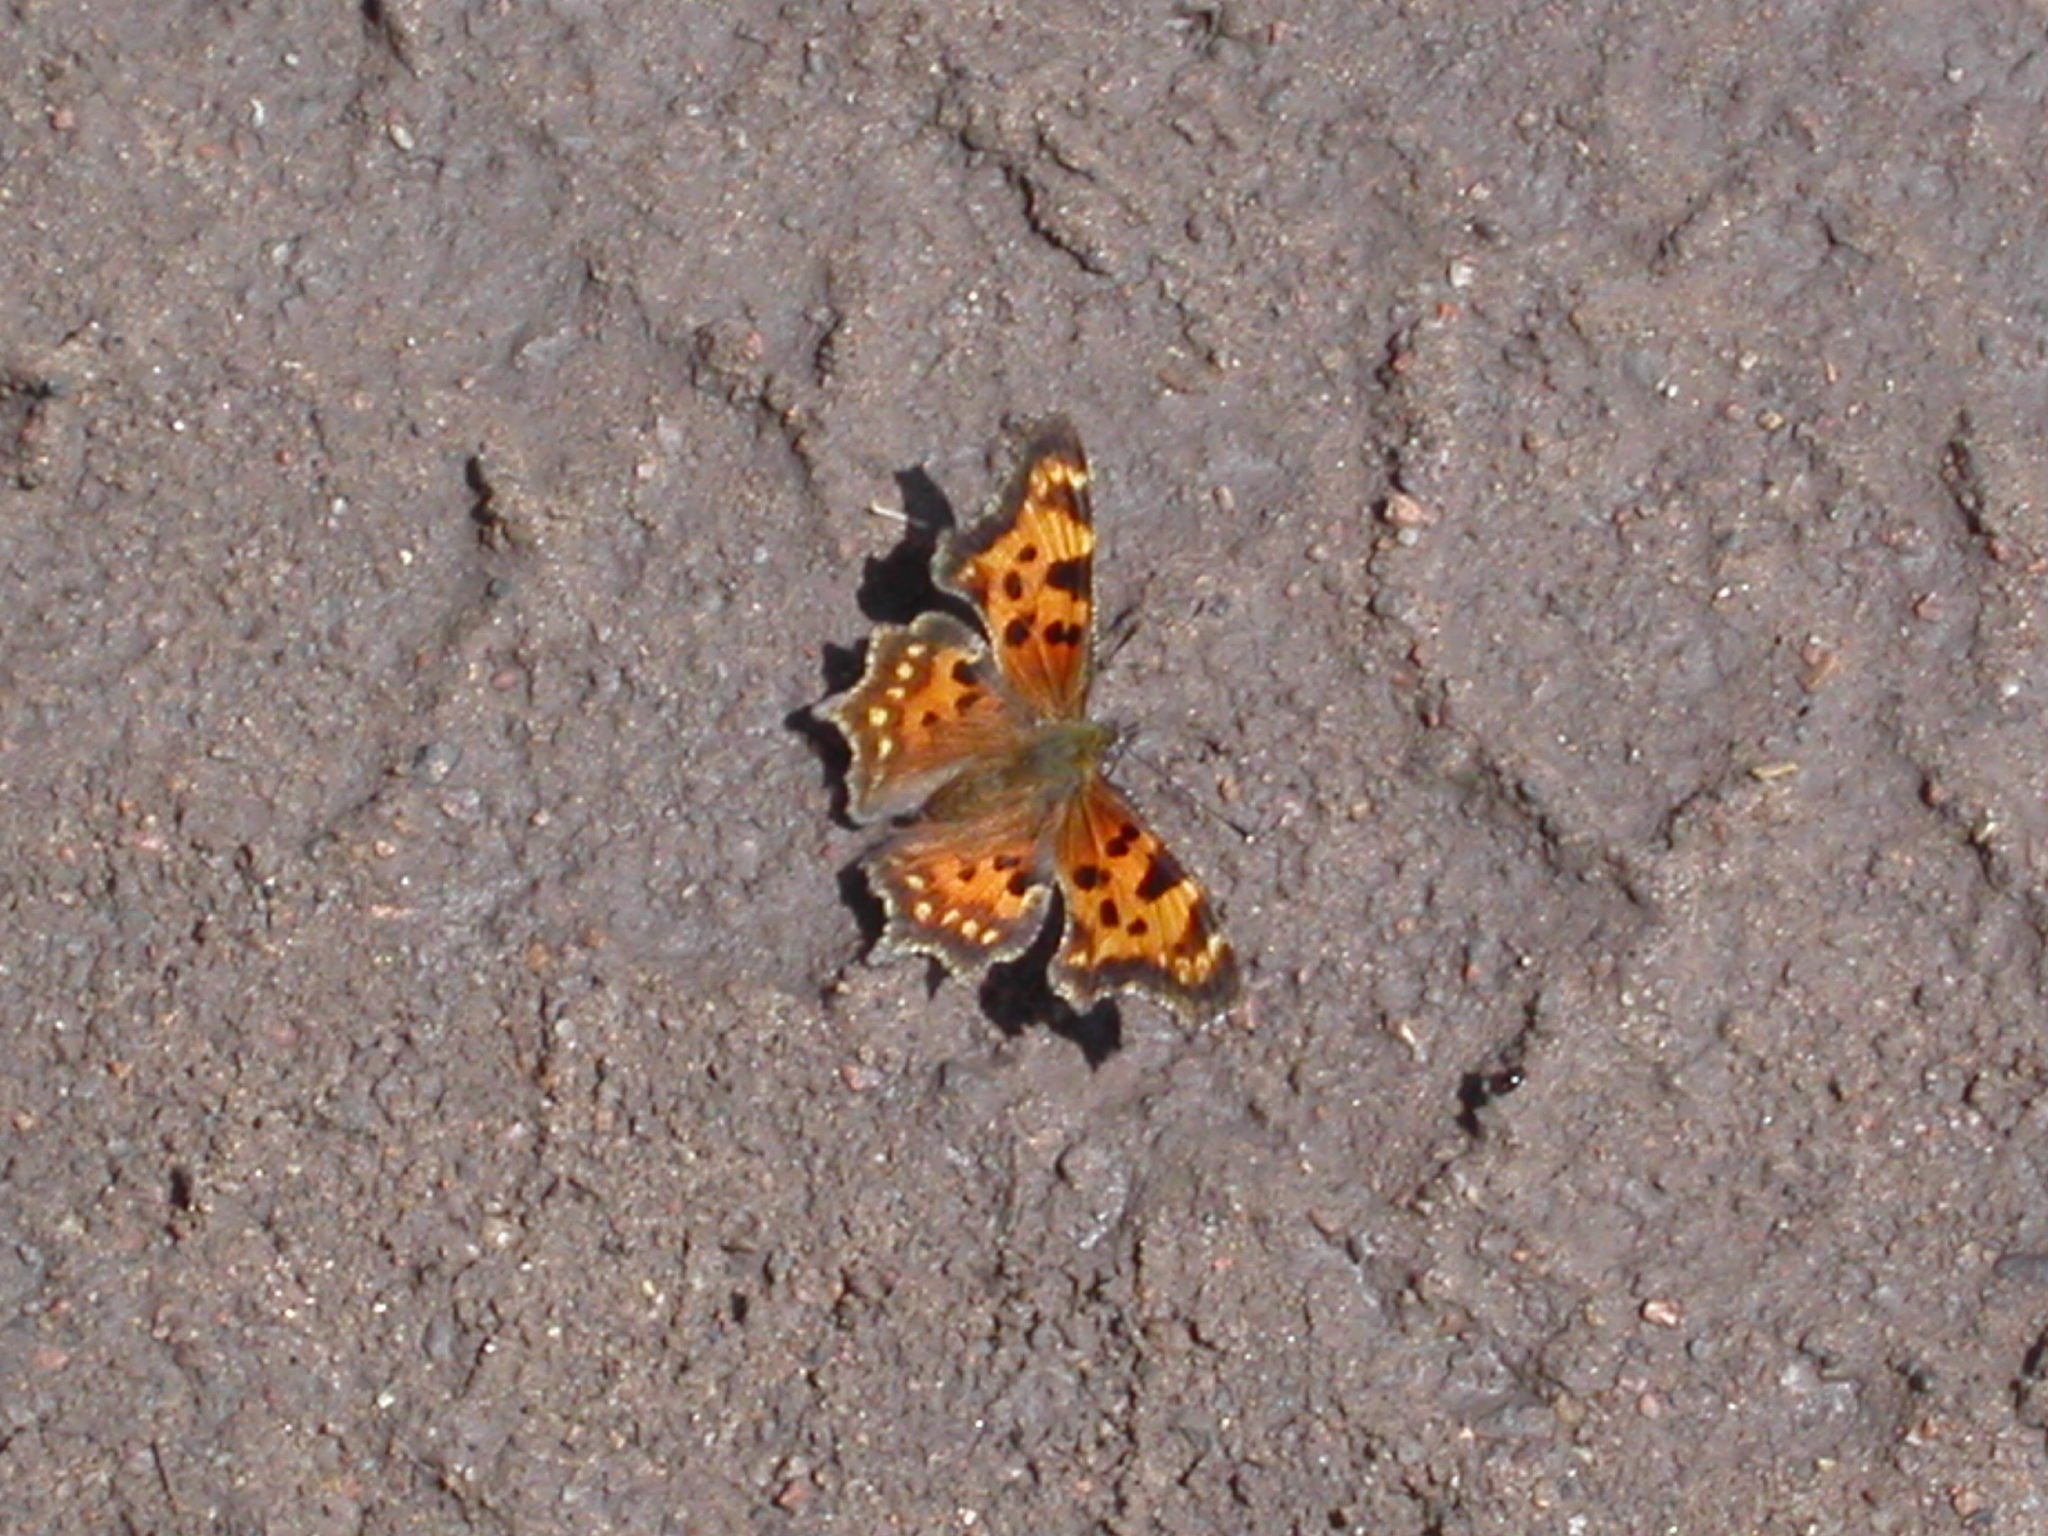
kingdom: Animalia
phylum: Arthropoda
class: Insecta
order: Lepidoptera
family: Nymphalidae
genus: Polygonia
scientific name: Polygonia faunus
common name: Green comma
